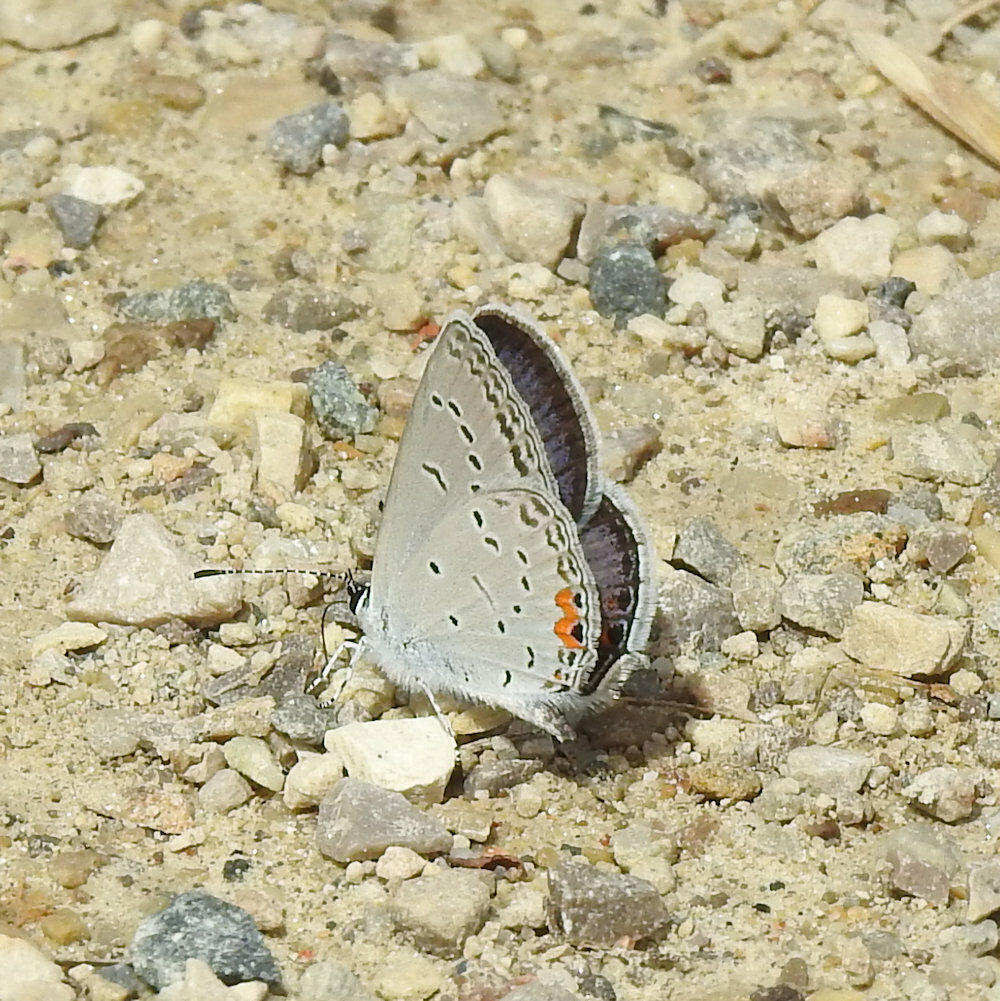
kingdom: Animalia
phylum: Arthropoda
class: Insecta
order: Lepidoptera
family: Lycaenidae
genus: Elkalyce
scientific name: Elkalyce comyntas
